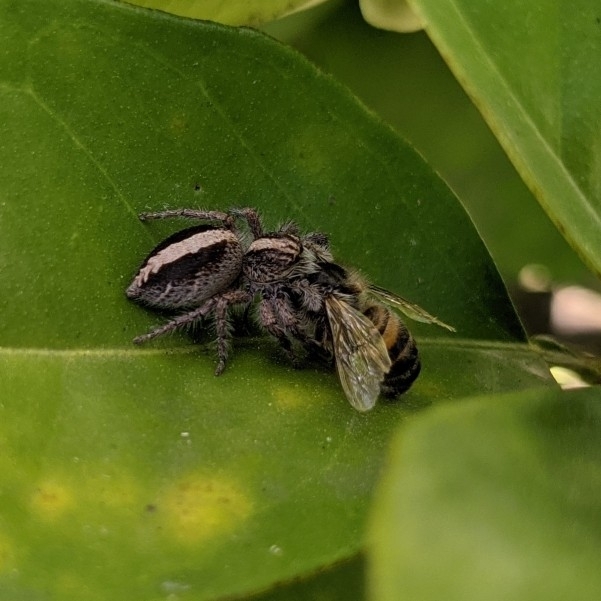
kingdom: Animalia
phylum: Arthropoda
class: Arachnida
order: Araneae
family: Salticidae
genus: Megafreya
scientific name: Megafreya sutrix
